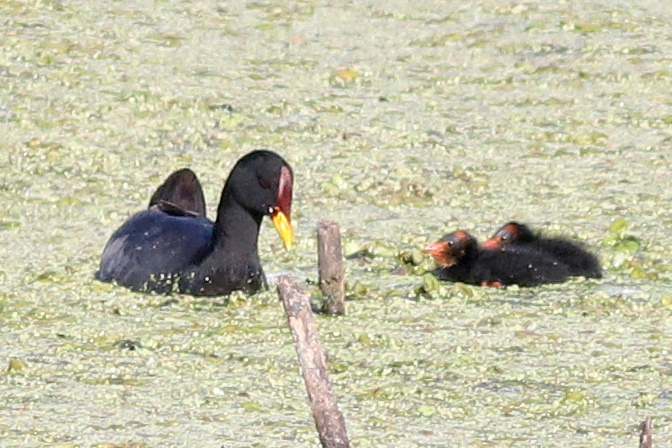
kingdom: Animalia
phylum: Chordata
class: Aves
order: Gruiformes
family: Rallidae
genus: Fulica
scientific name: Fulica rufifrons
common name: Red-fronted coot
